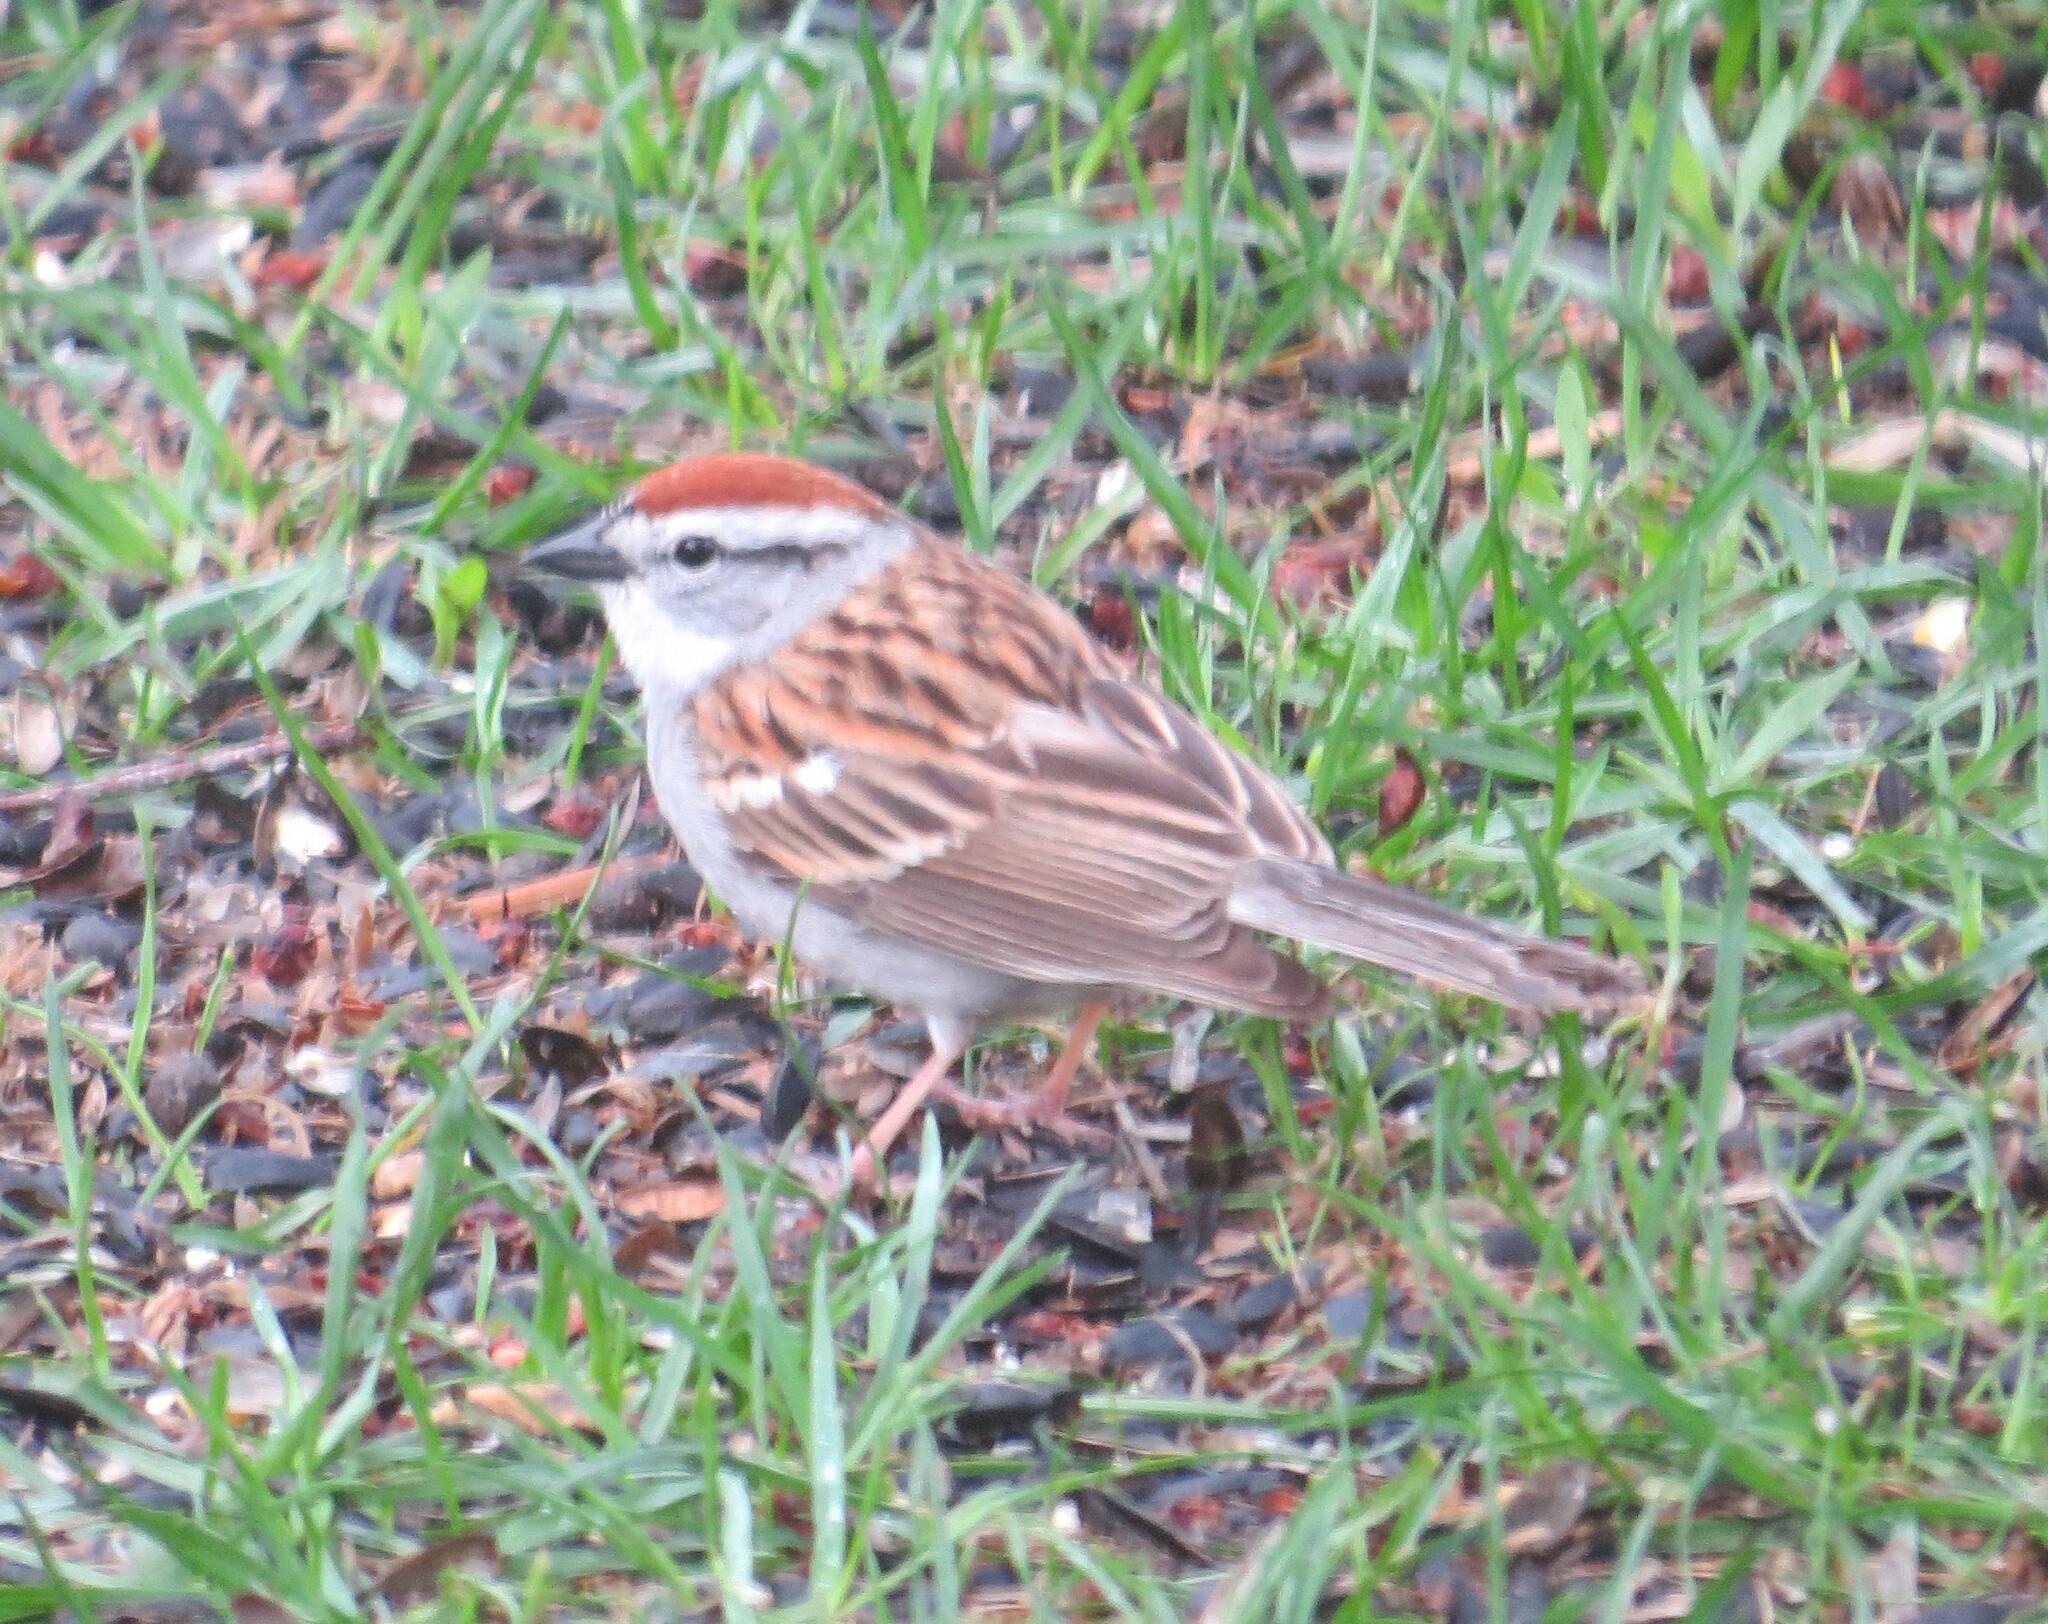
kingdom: Animalia
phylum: Chordata
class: Aves
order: Passeriformes
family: Passerellidae
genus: Spizella
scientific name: Spizella passerina
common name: Chipping sparrow
